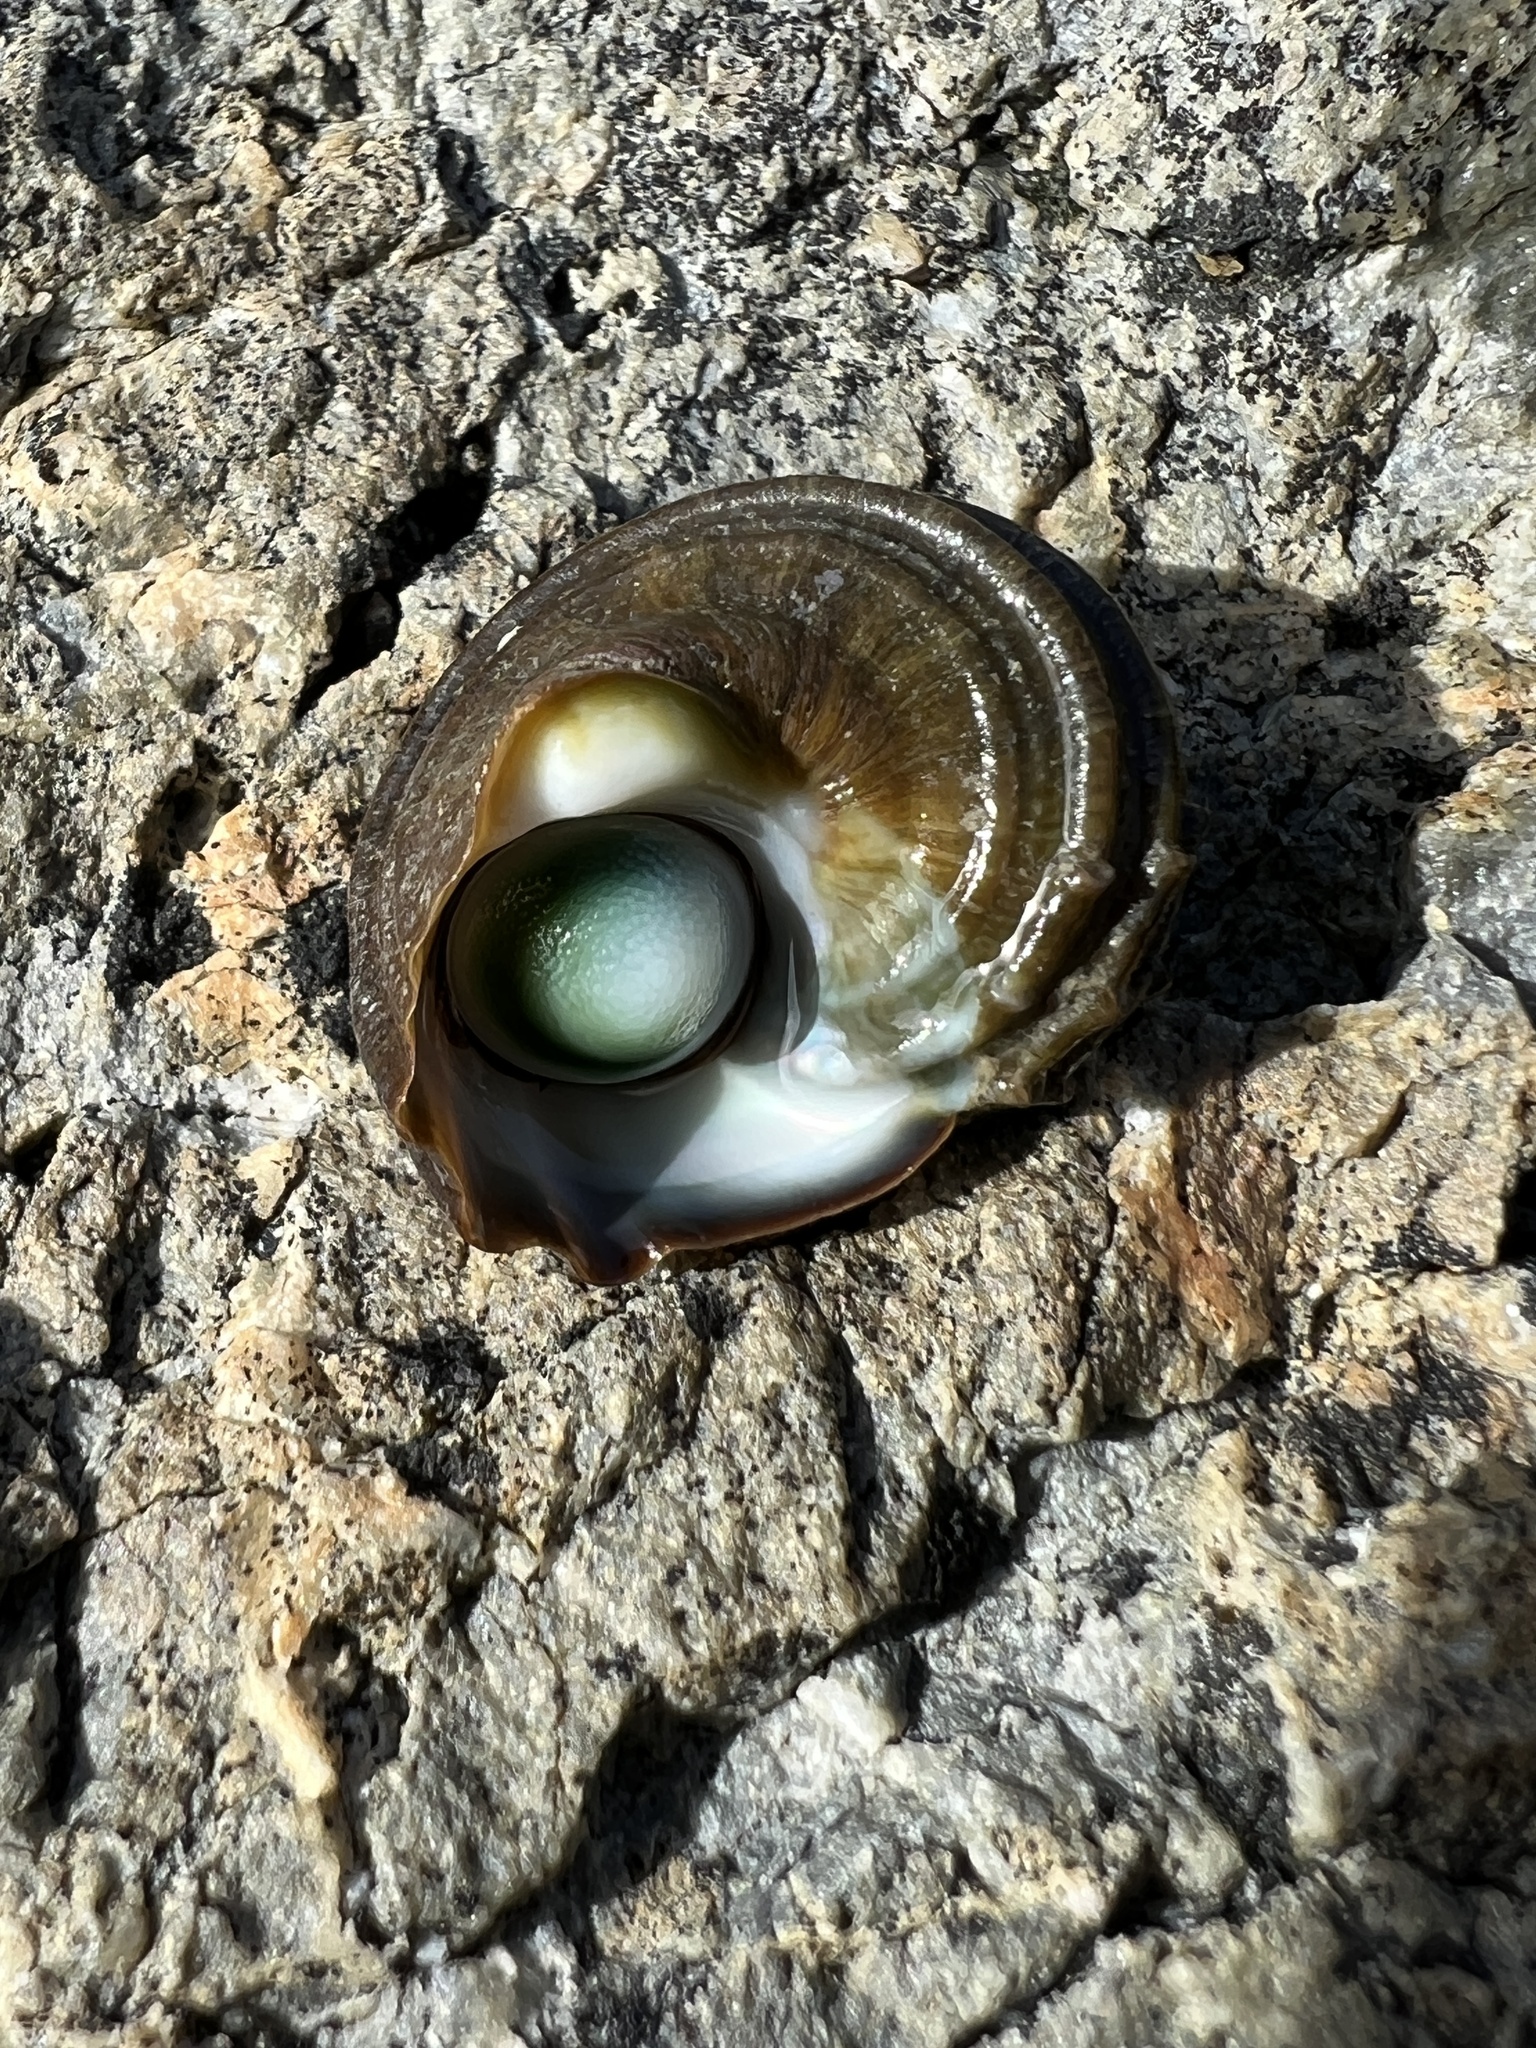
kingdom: Animalia
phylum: Mollusca
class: Gastropoda
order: Trochida
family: Turbinidae
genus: Lunella
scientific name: Lunella smaragda
